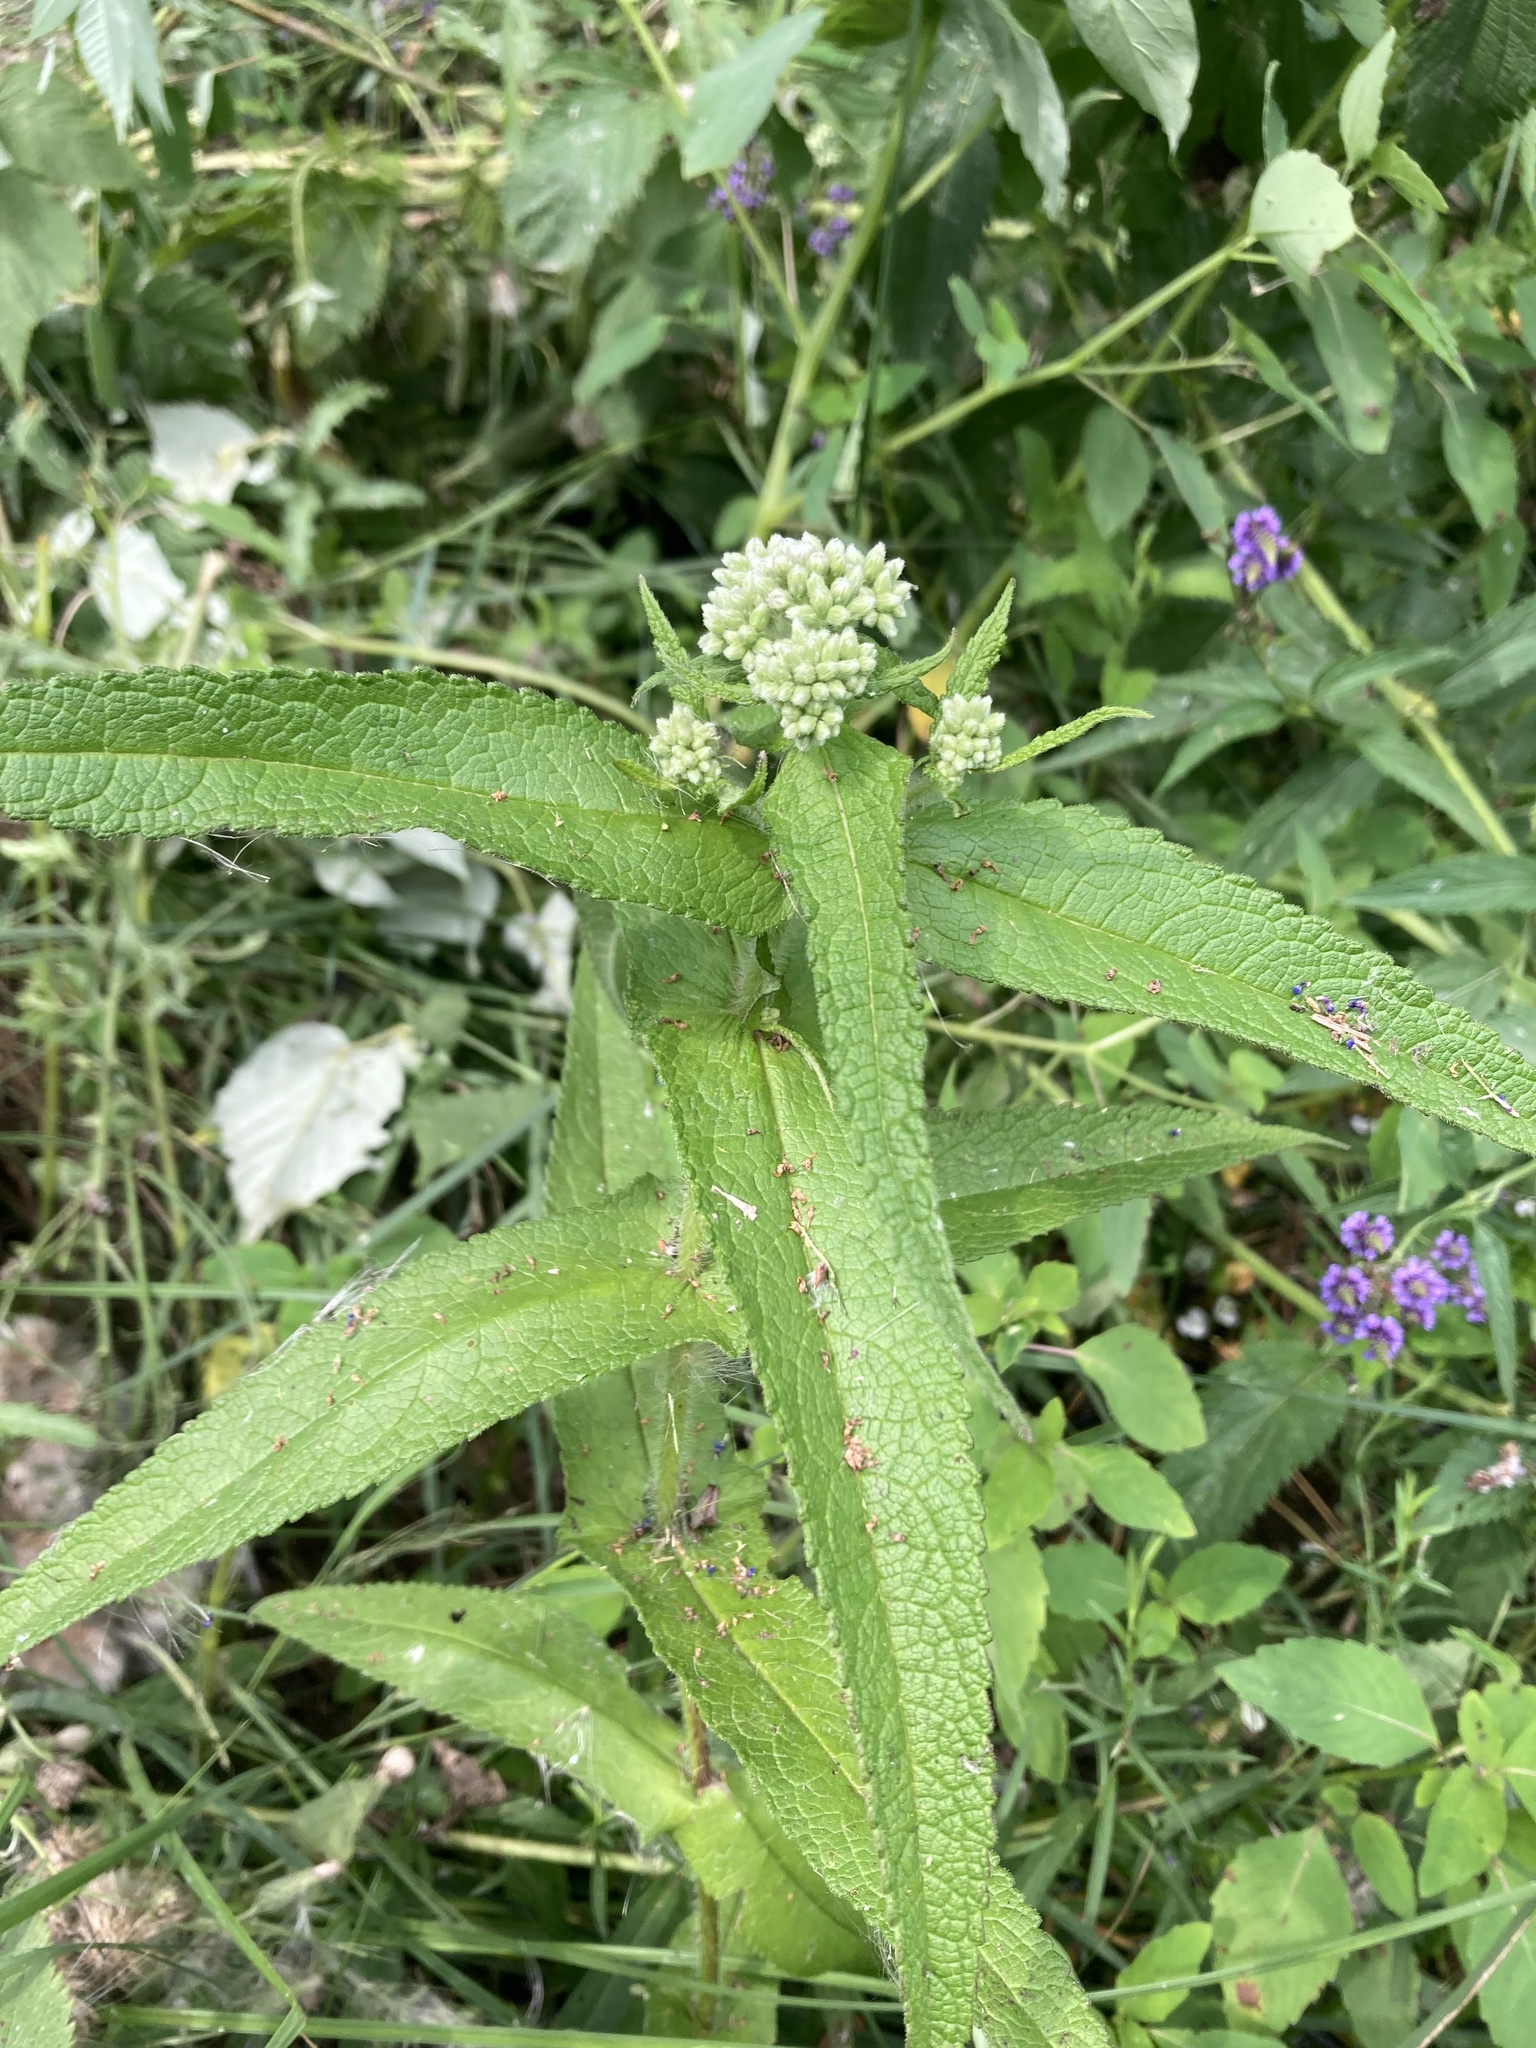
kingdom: Plantae
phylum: Tracheophyta
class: Magnoliopsida
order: Asterales
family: Asteraceae
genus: Eupatorium
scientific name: Eupatorium perfoliatum
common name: Boneset
